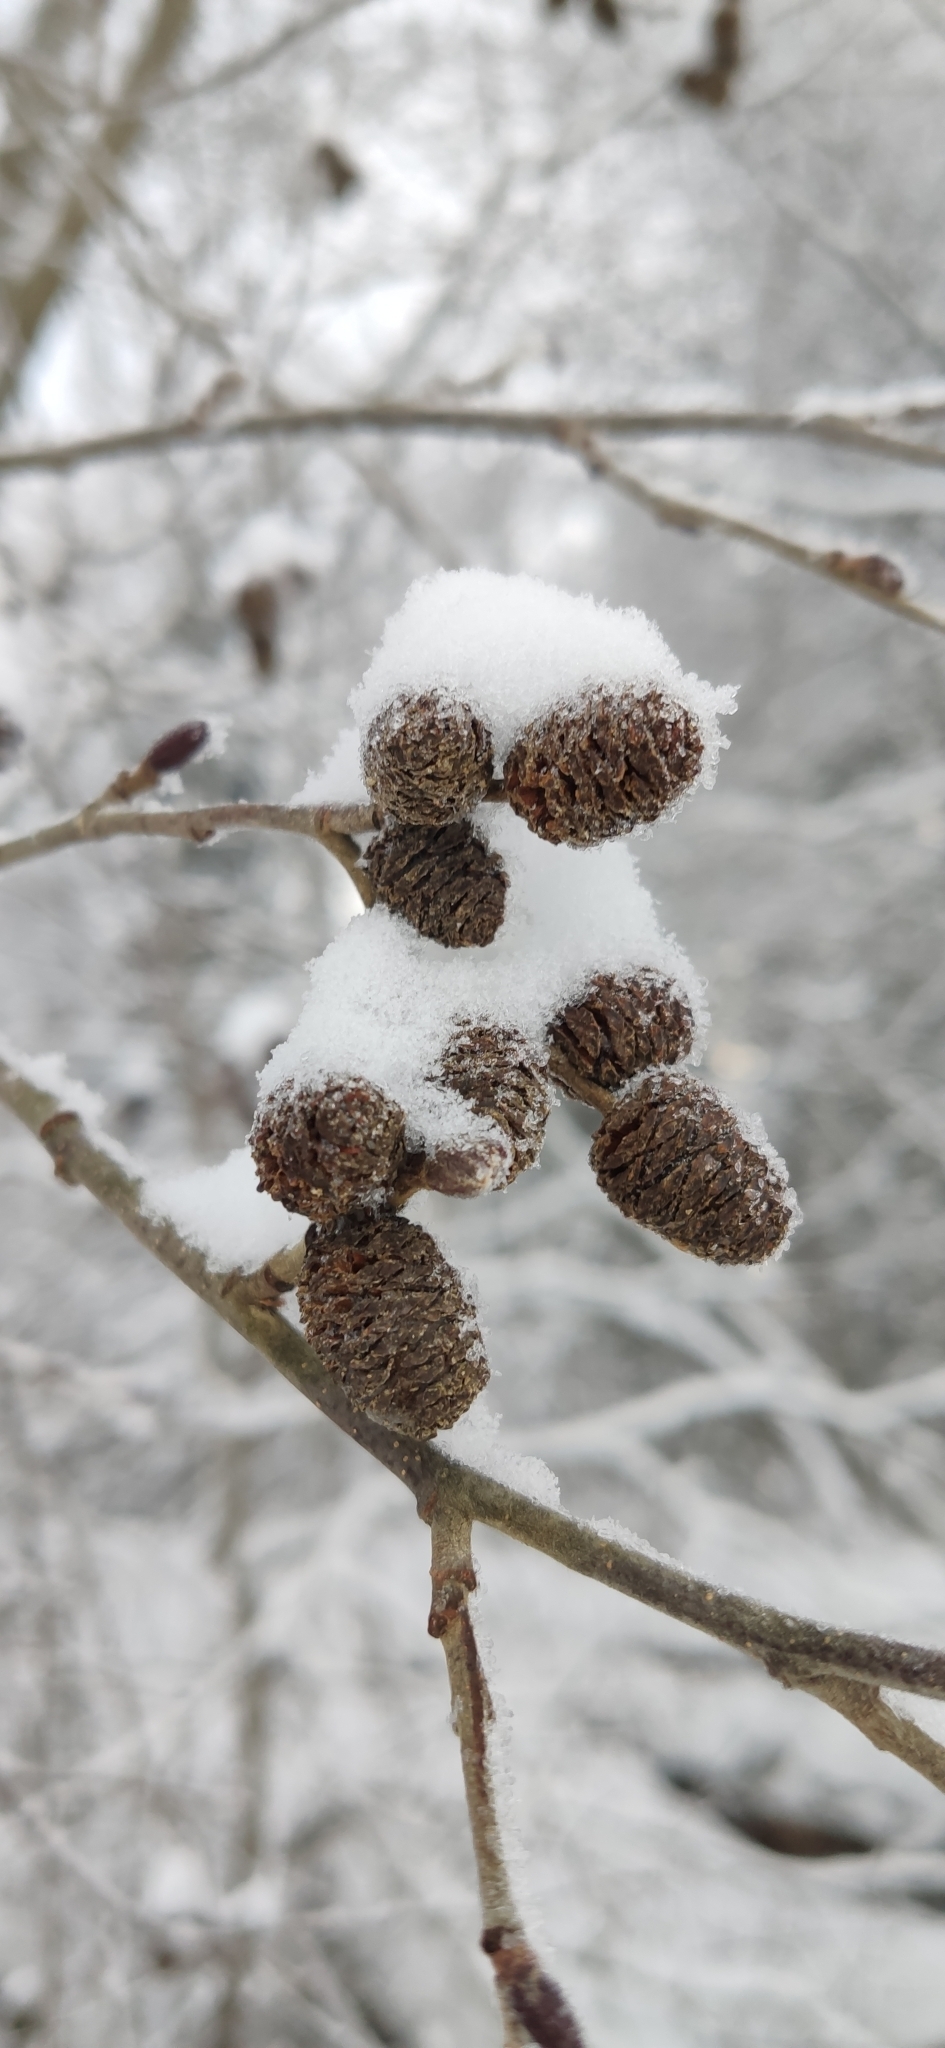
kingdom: Plantae
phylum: Tracheophyta
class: Magnoliopsida
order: Fagales
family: Betulaceae
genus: Alnus
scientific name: Alnus incana
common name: Grey alder
